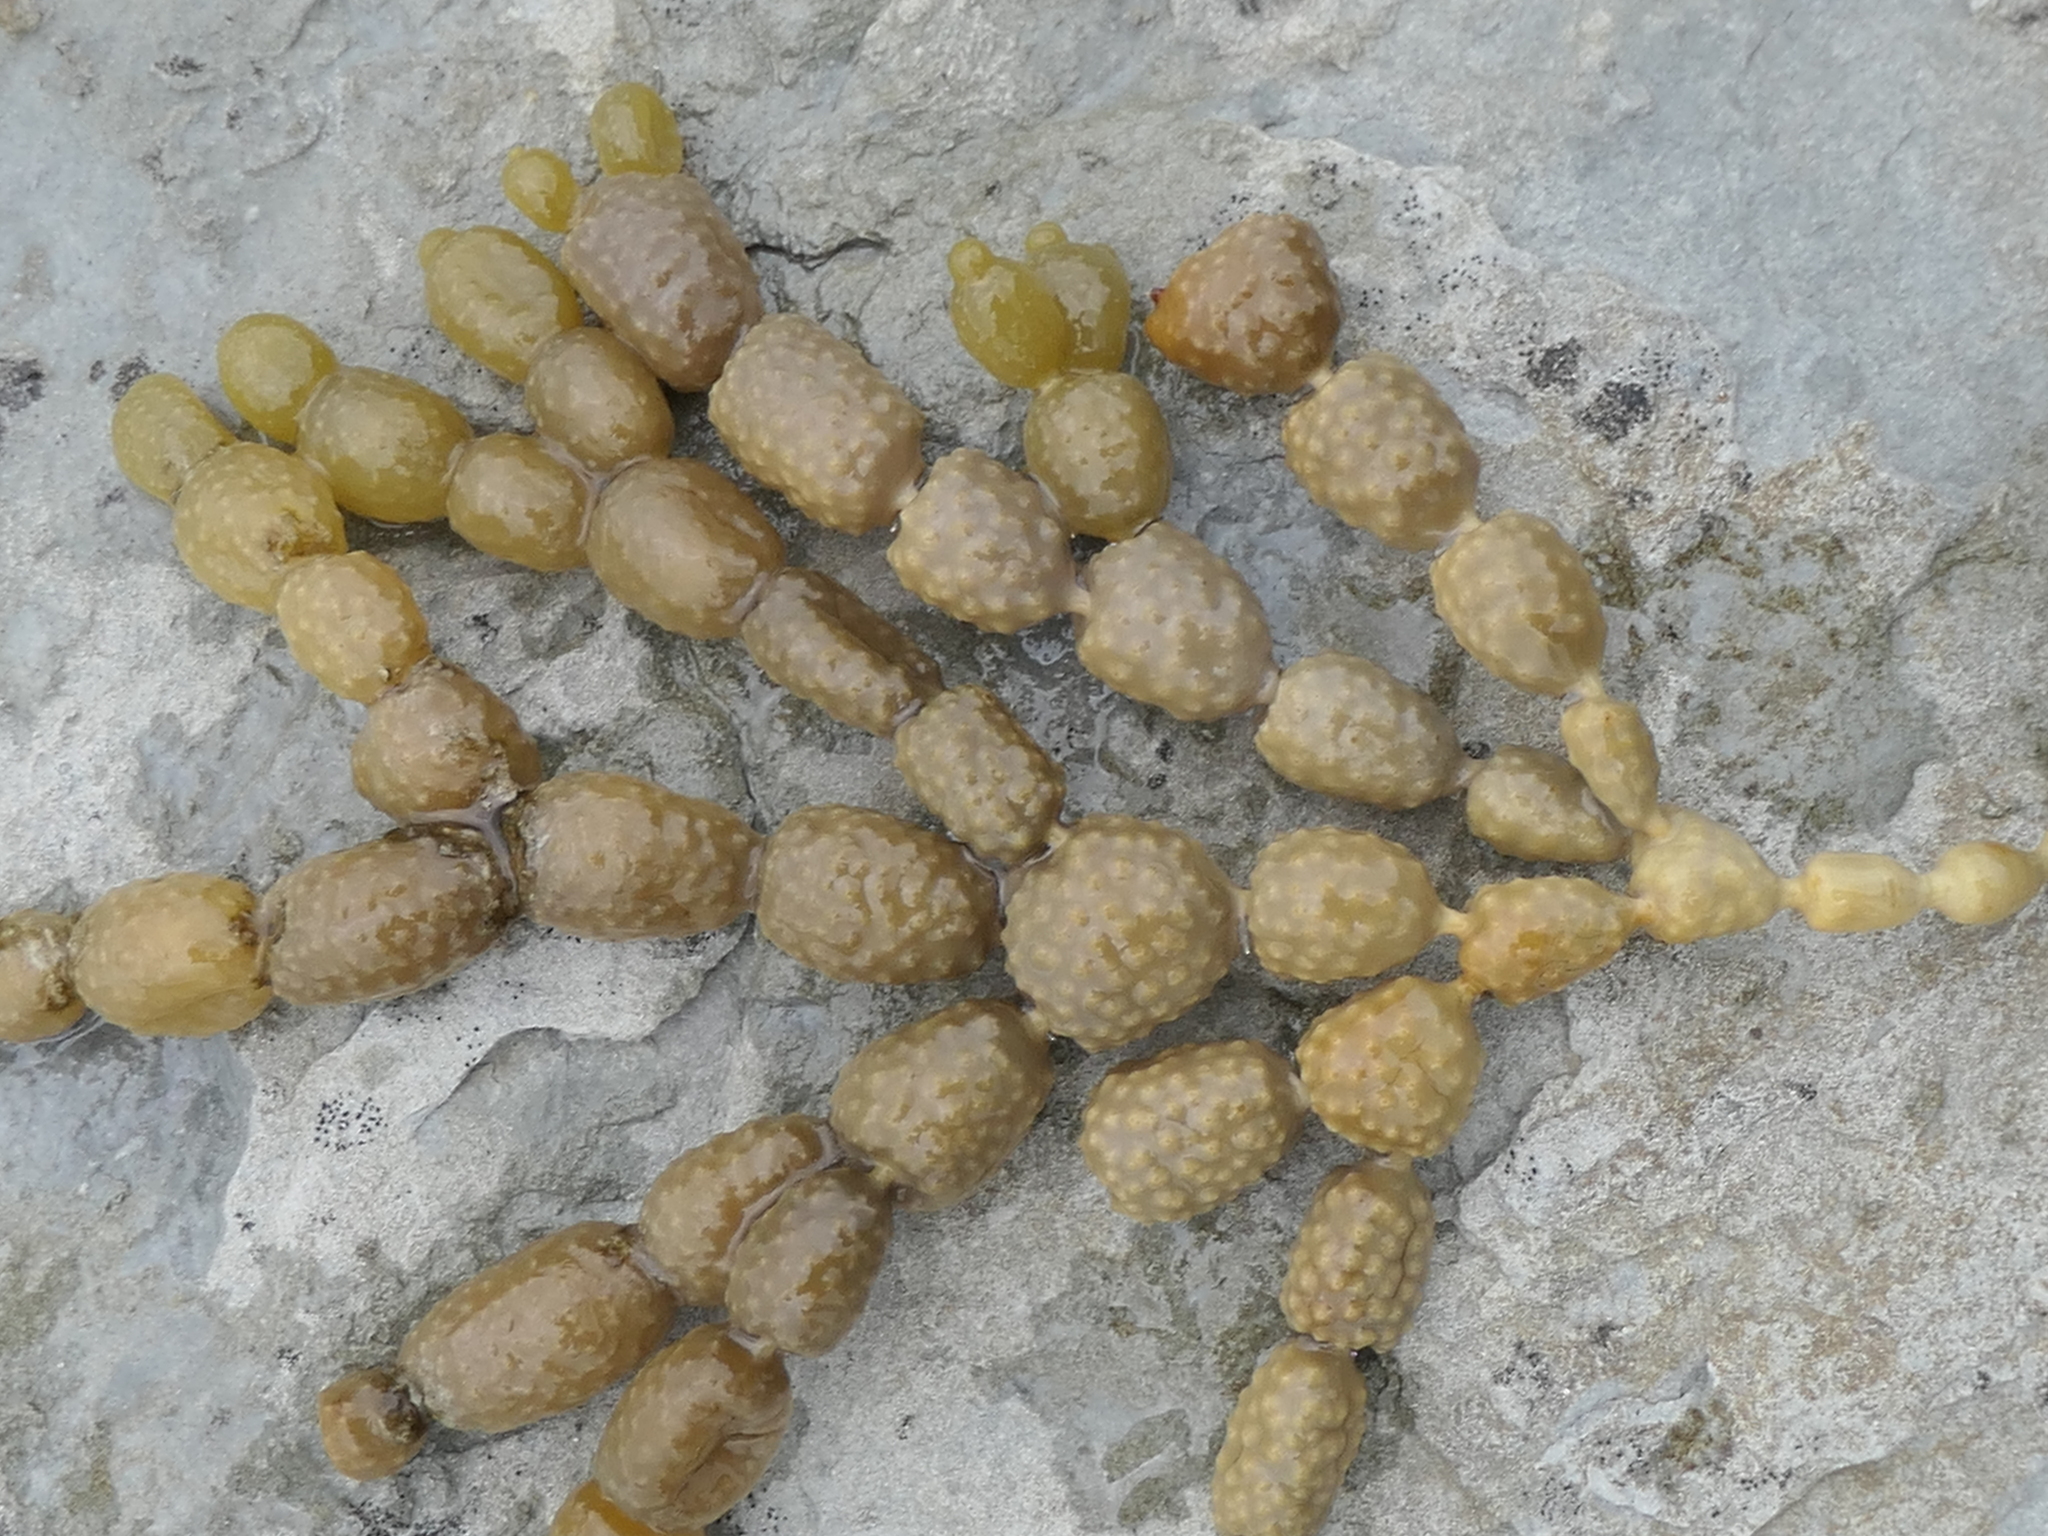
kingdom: Chromista
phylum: Ochrophyta
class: Phaeophyceae
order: Fucales
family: Hormosiraceae
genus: Hormosira
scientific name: Hormosira banksii
